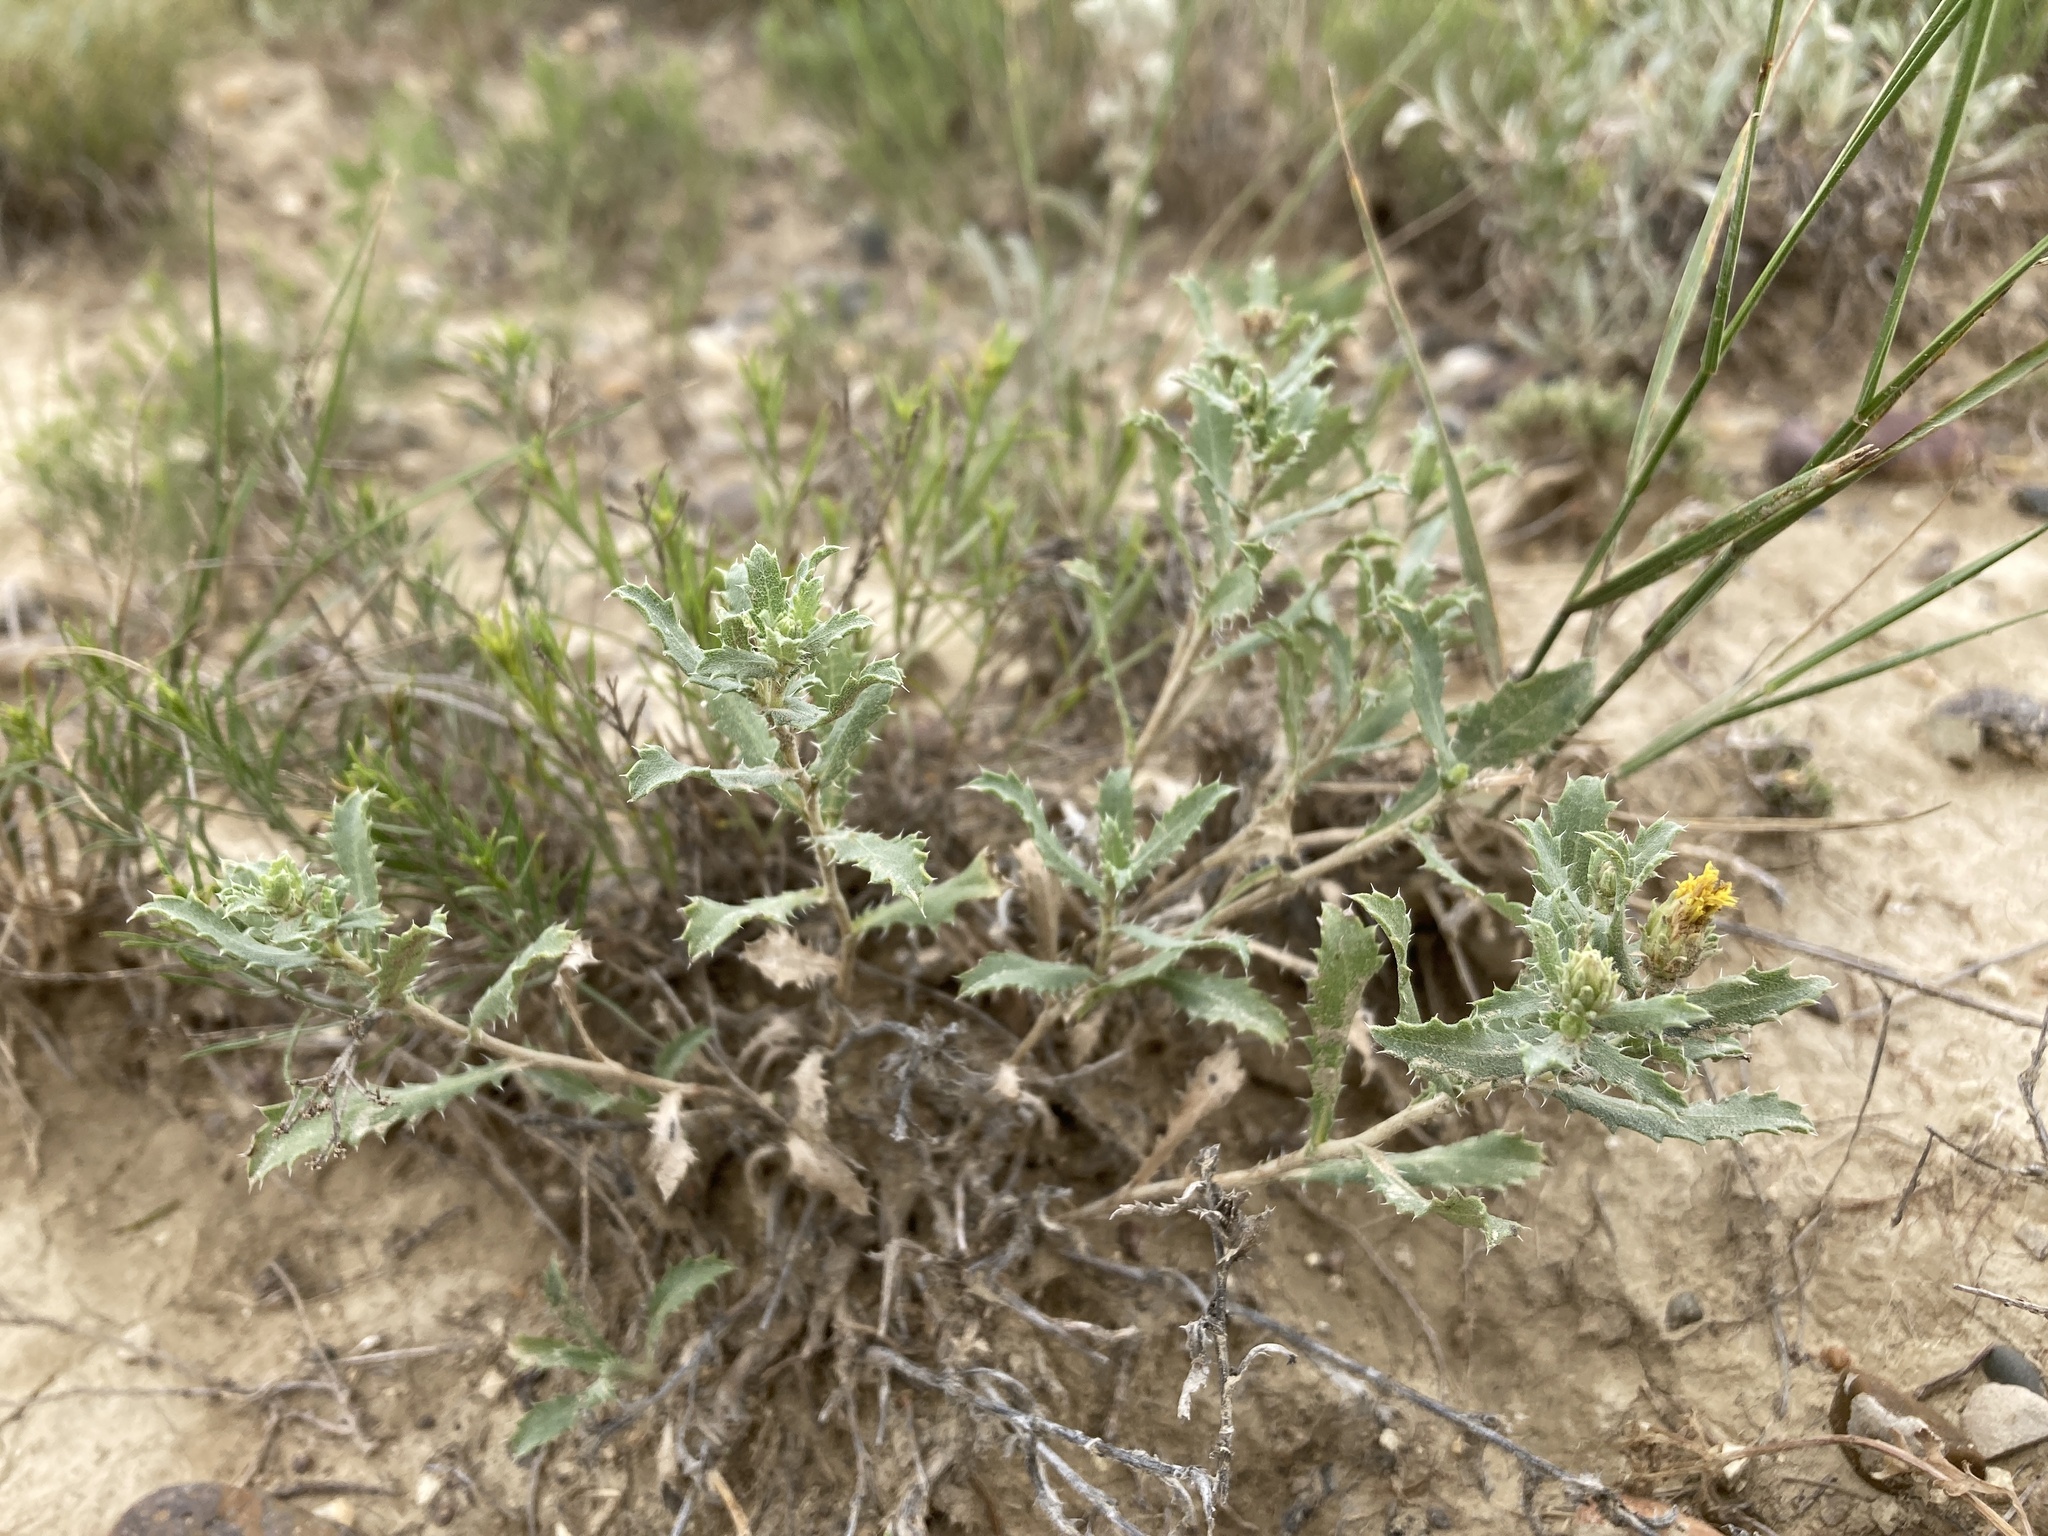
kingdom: Plantae
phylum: Tracheophyta
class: Magnoliopsida
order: Asterales
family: Asteraceae
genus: Xanthisma
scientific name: Xanthisma grindelioides
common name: Goldenweed
